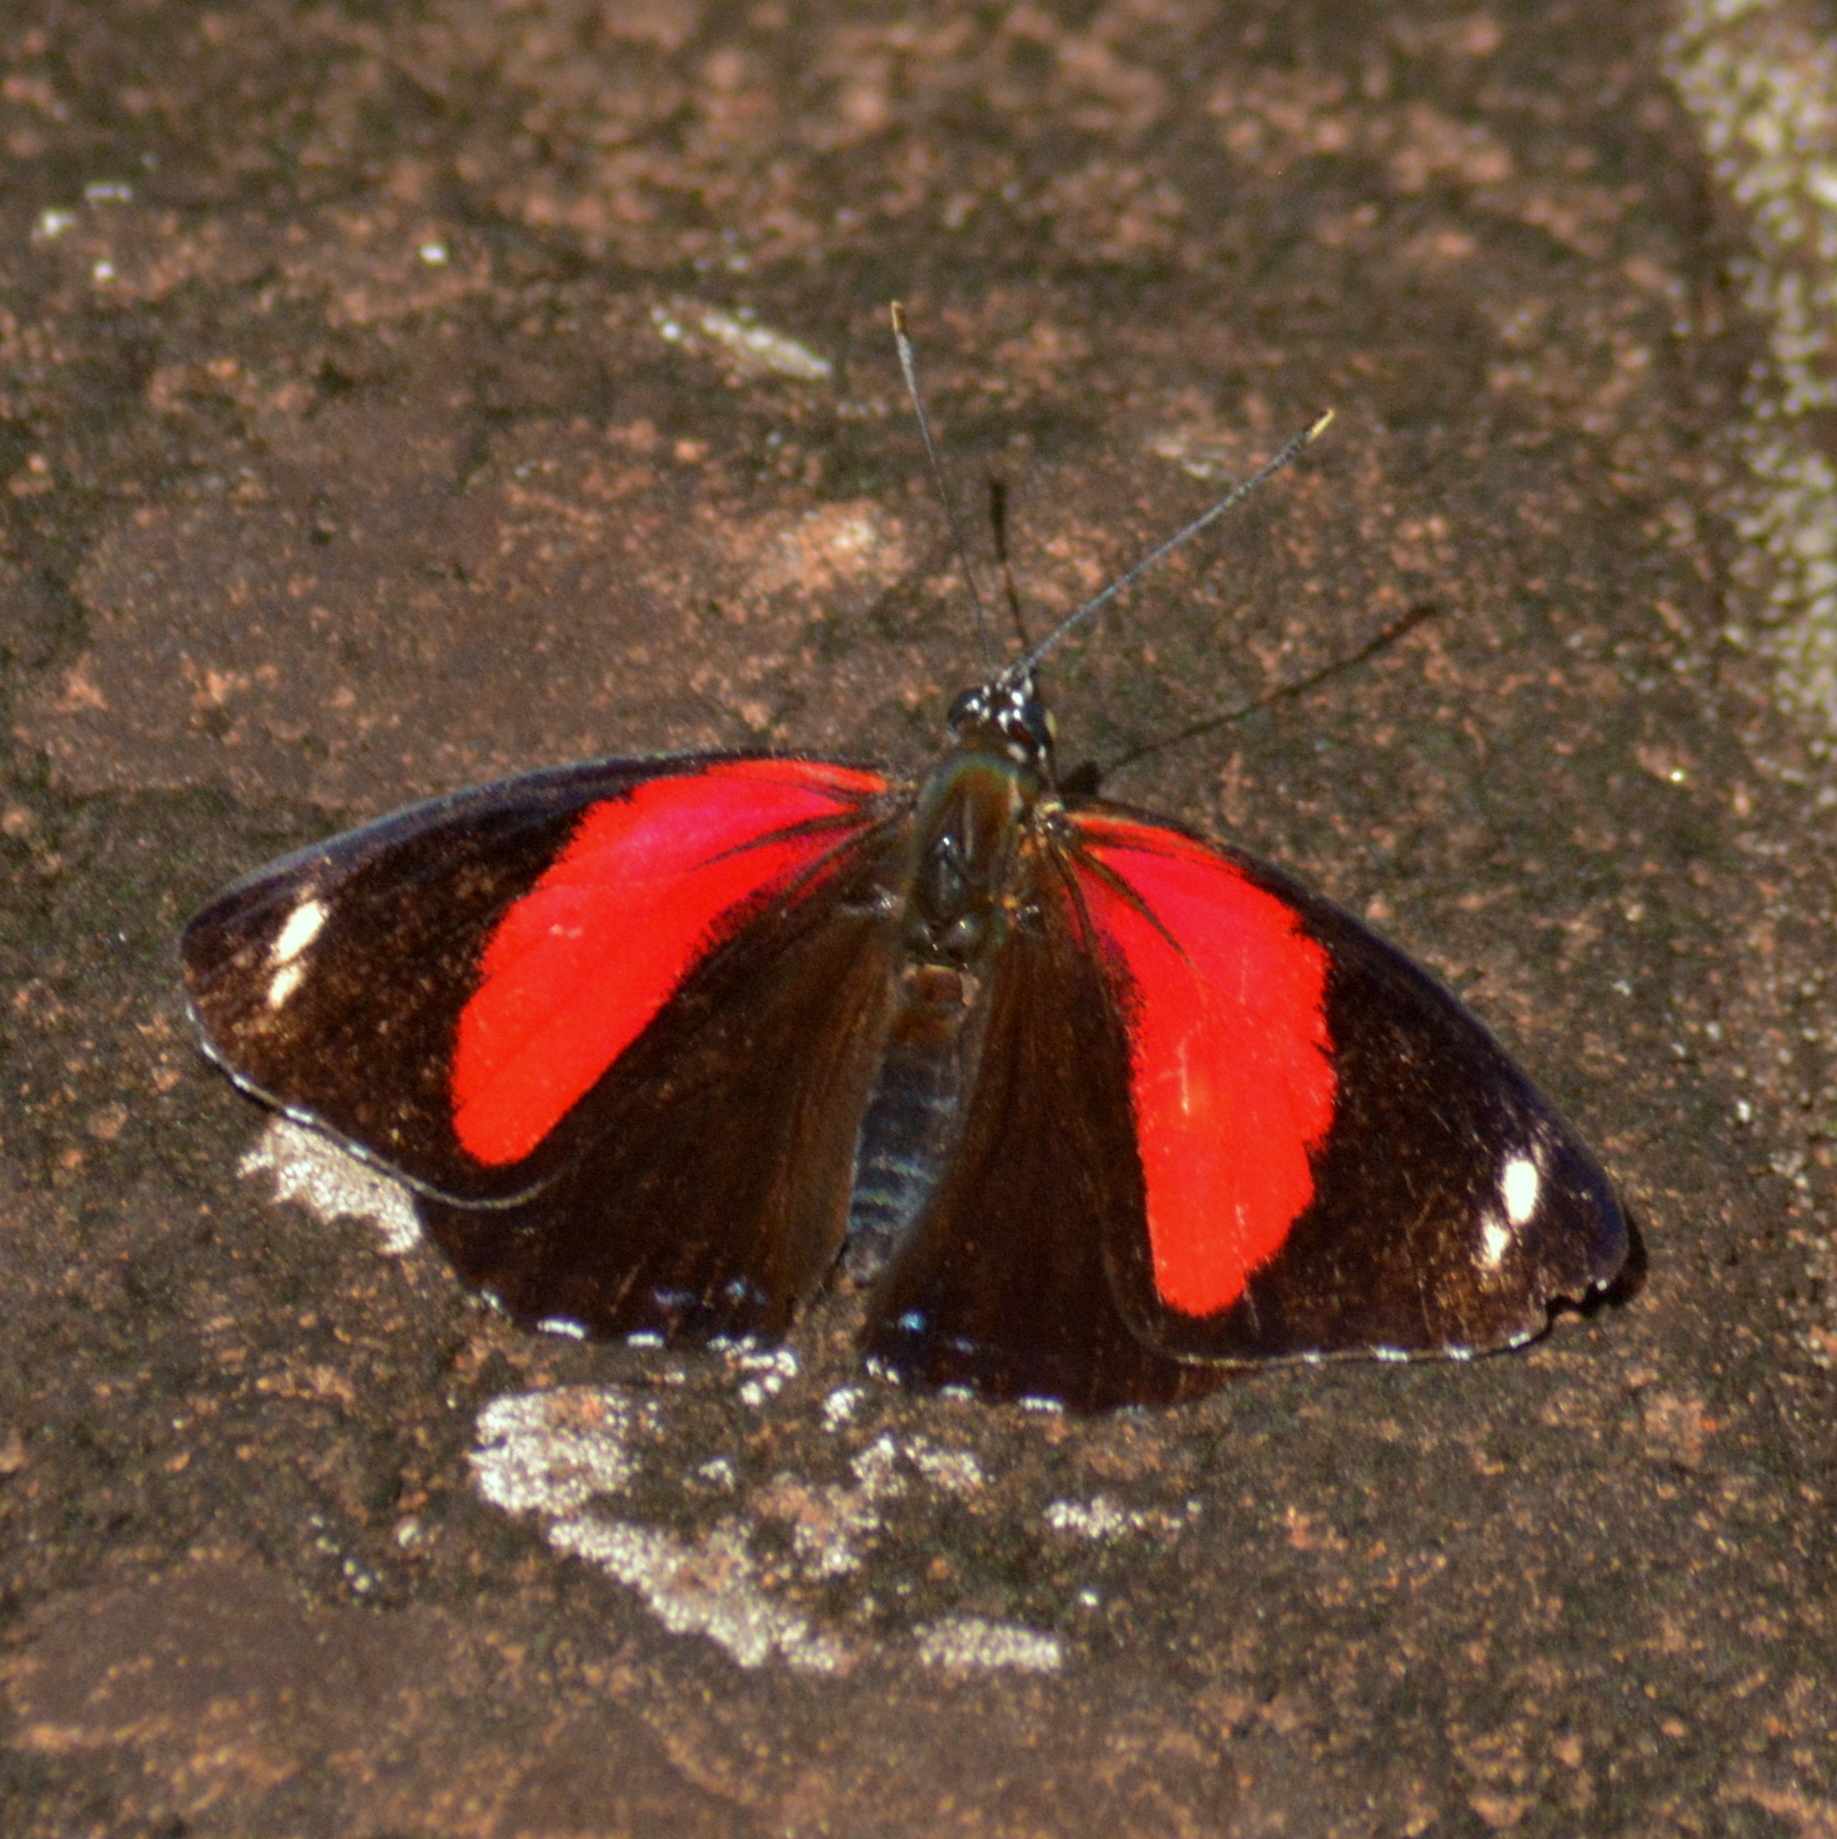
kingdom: Animalia
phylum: Arthropoda
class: Insecta
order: Lepidoptera
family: Nymphalidae
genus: Catagramma
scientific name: Catagramma pygas
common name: Godart's numberwing
